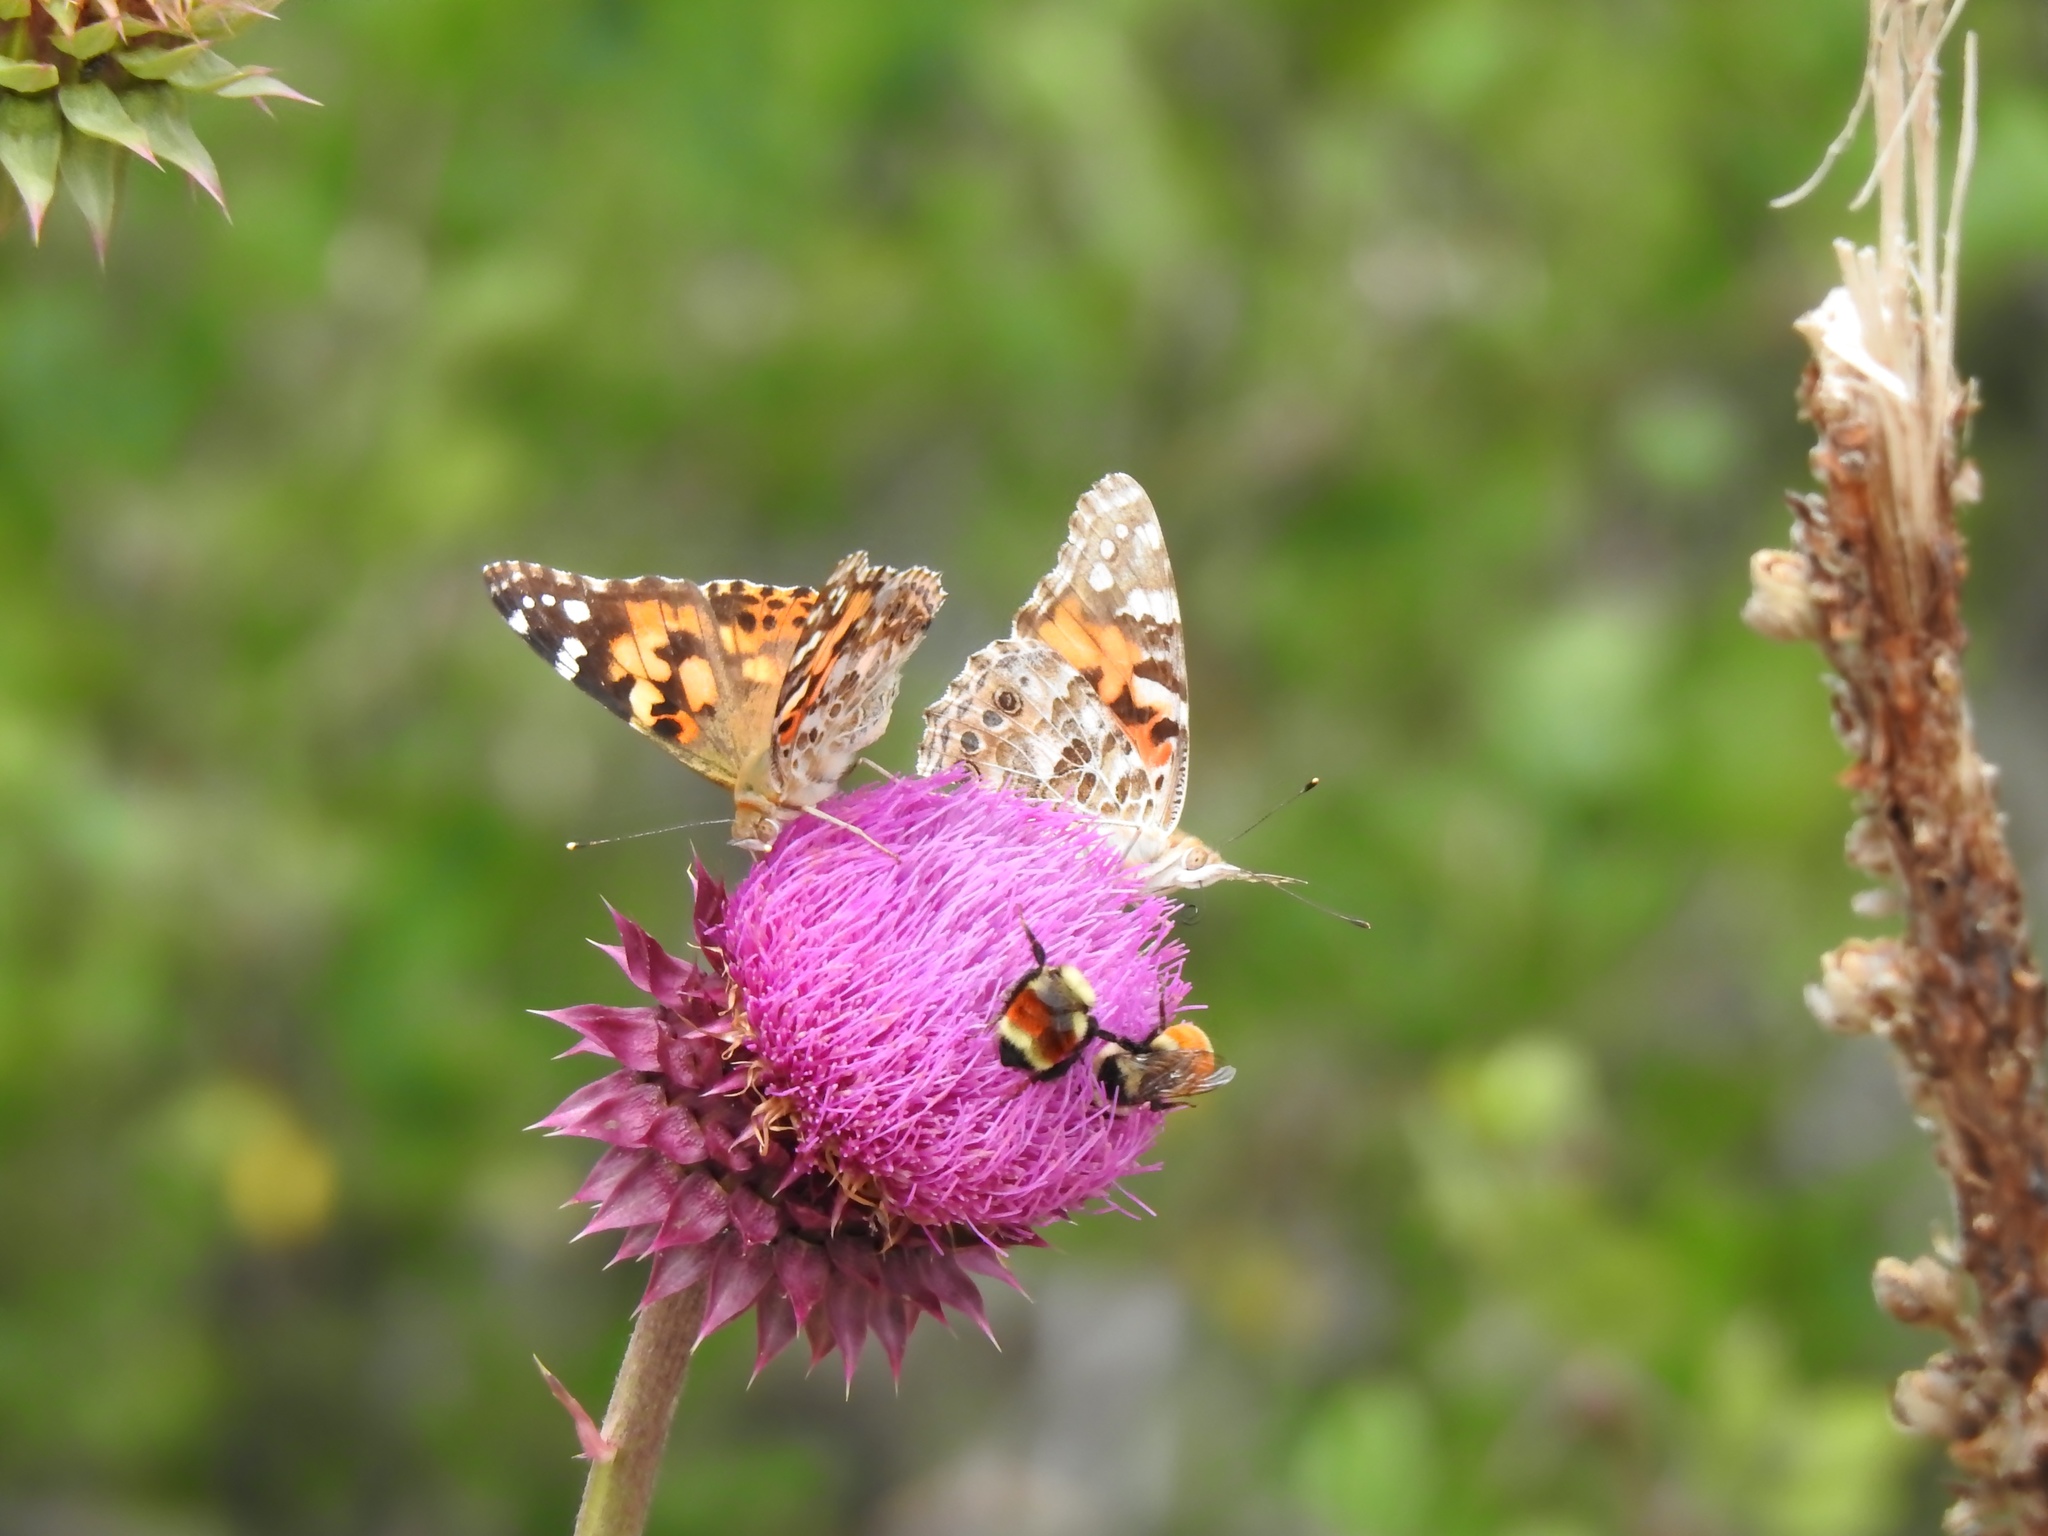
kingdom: Animalia
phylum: Arthropoda
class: Insecta
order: Lepidoptera
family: Nymphalidae
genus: Vanessa
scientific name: Vanessa cardui
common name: Painted lady
